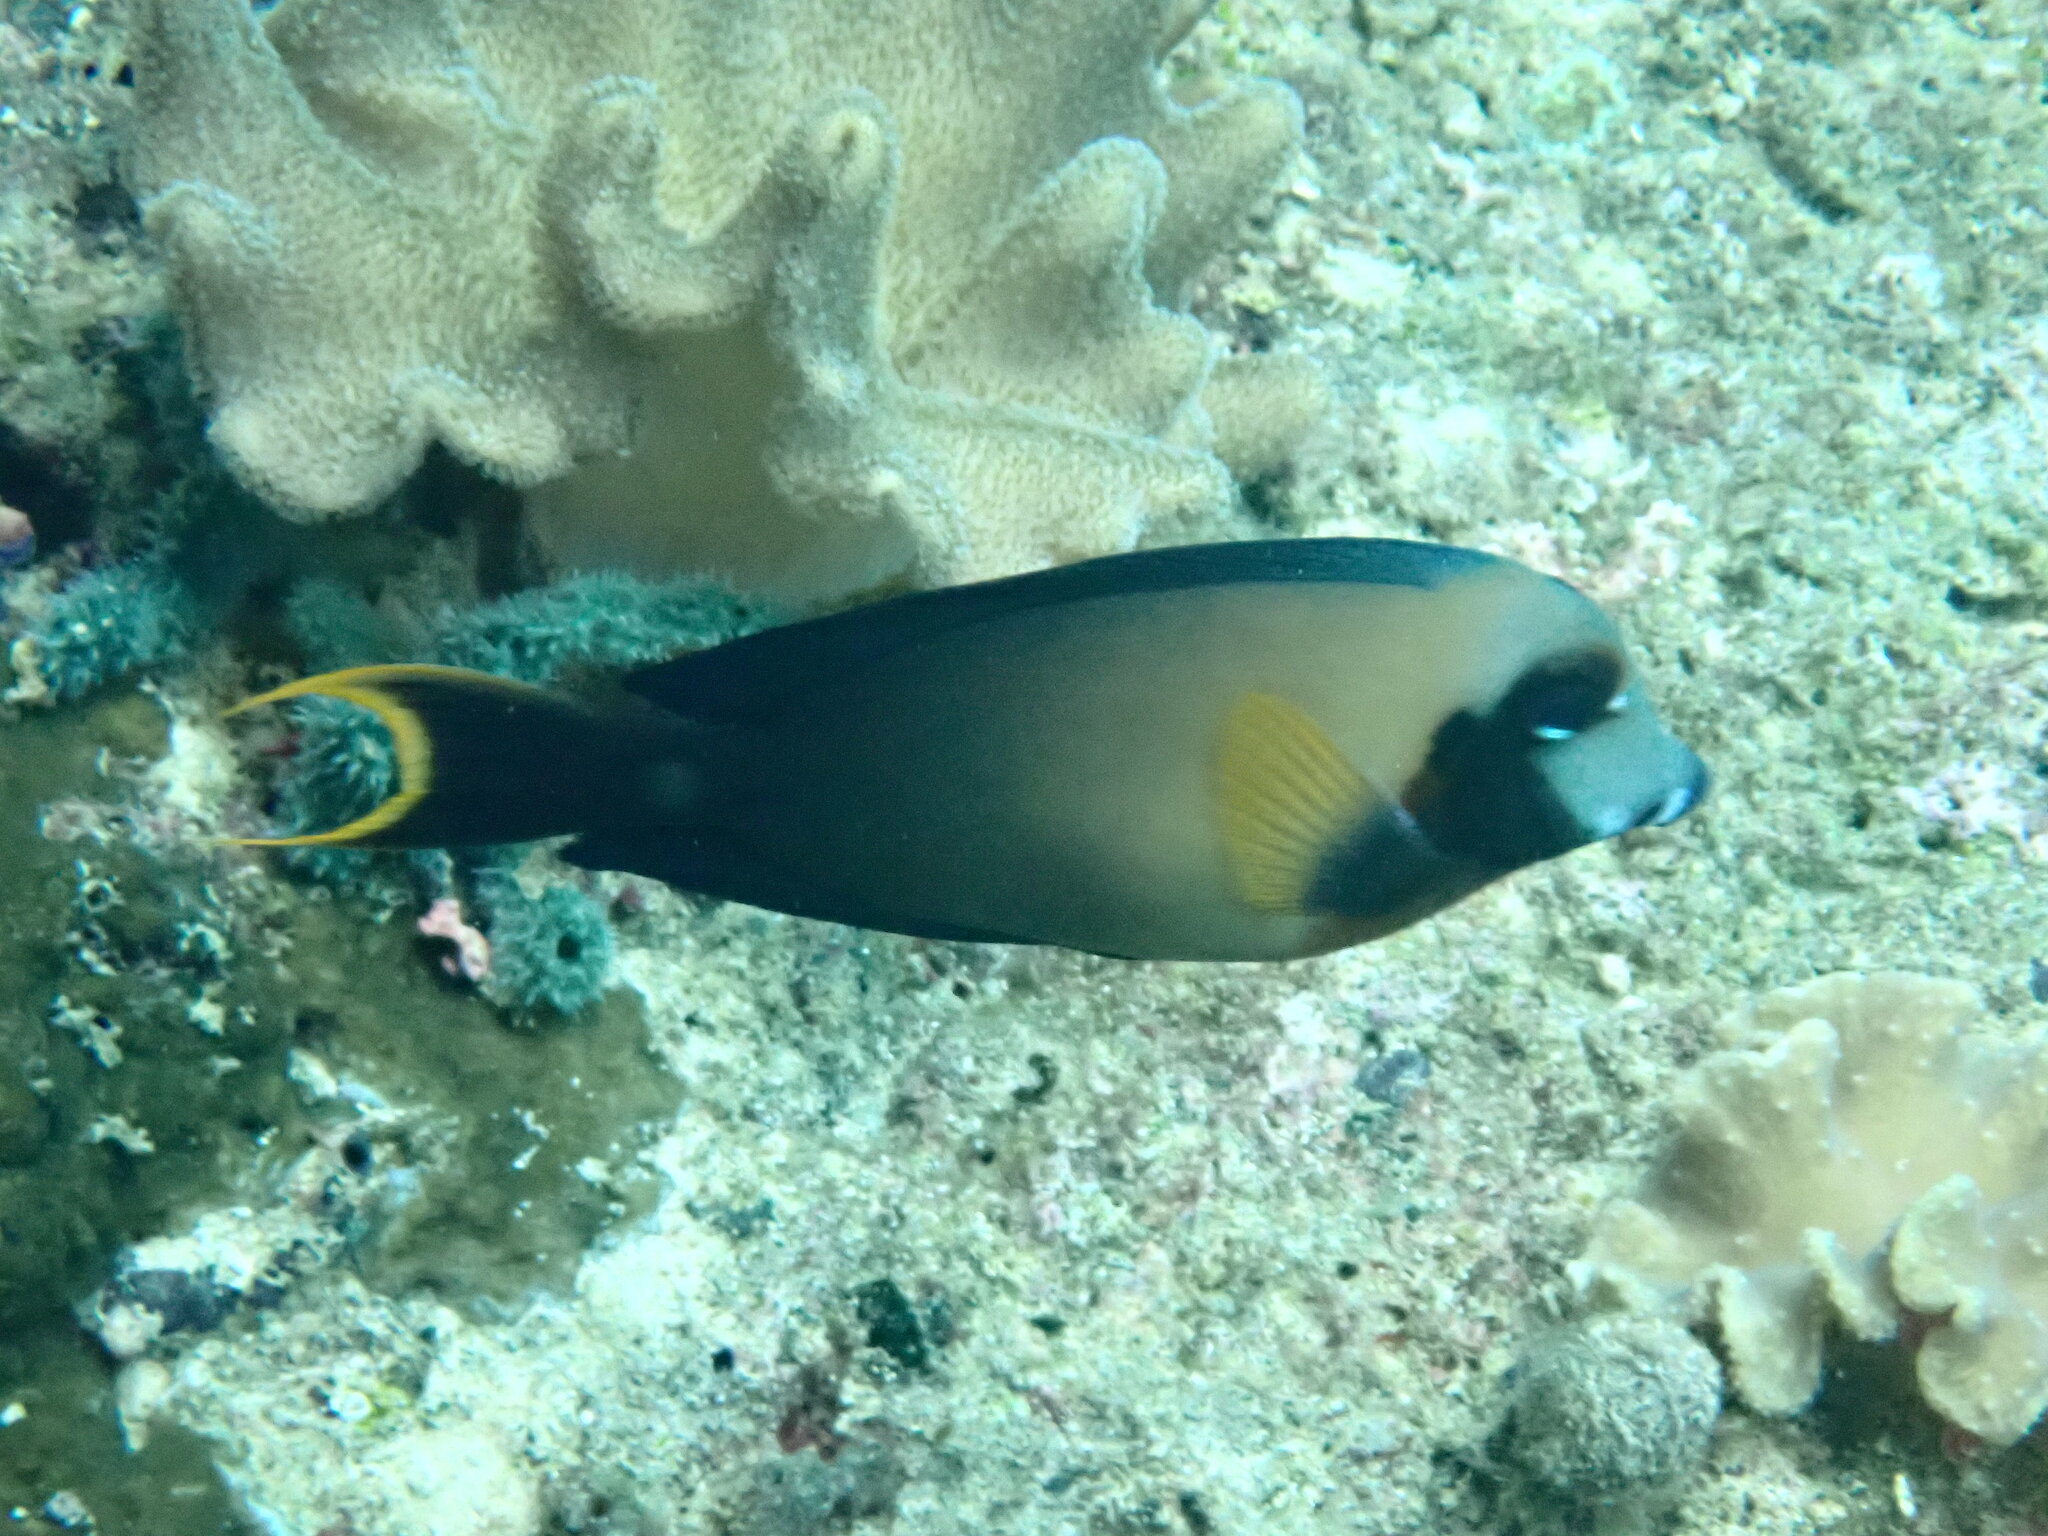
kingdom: Animalia
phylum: Chordata
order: Perciformes
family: Acanthuridae
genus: Acanthurus
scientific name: Acanthurus pyroferus
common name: Chocolate surgeonfish
